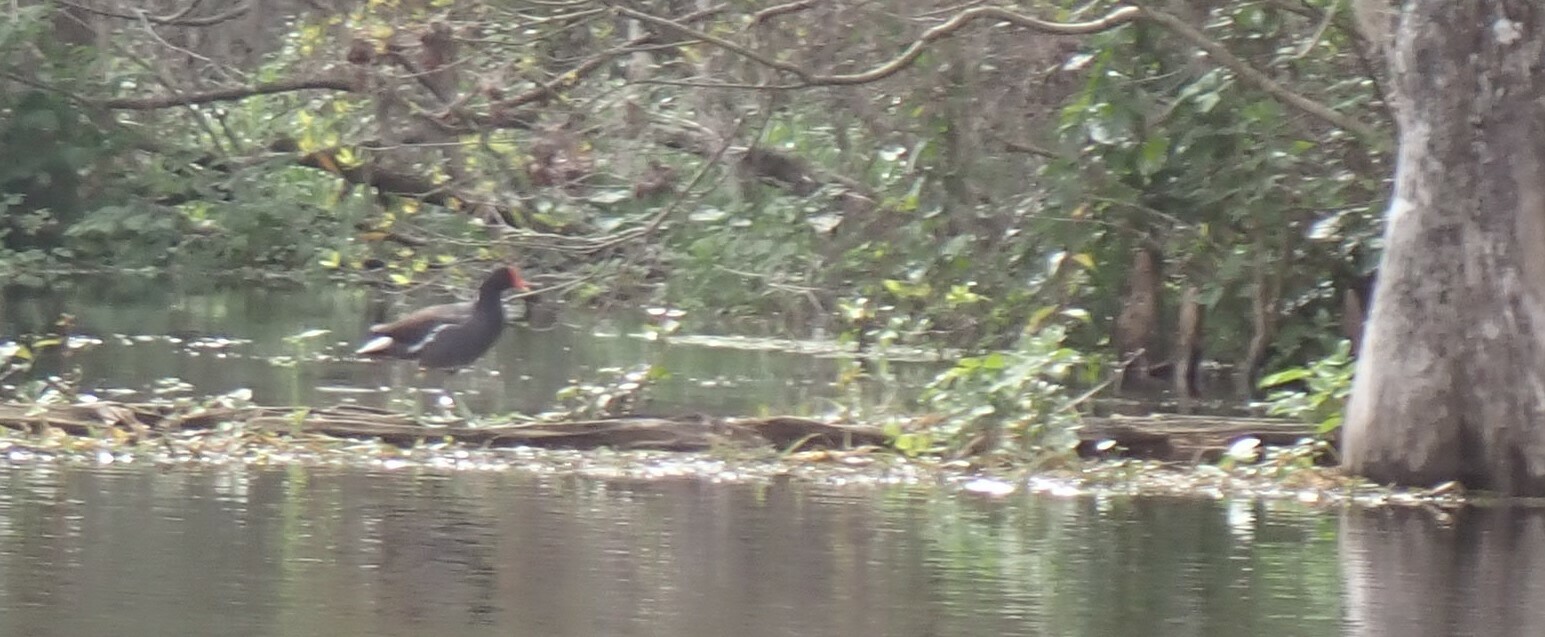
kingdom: Animalia
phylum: Chordata
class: Aves
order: Gruiformes
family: Rallidae
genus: Gallinula
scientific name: Gallinula chloropus
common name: Common moorhen
